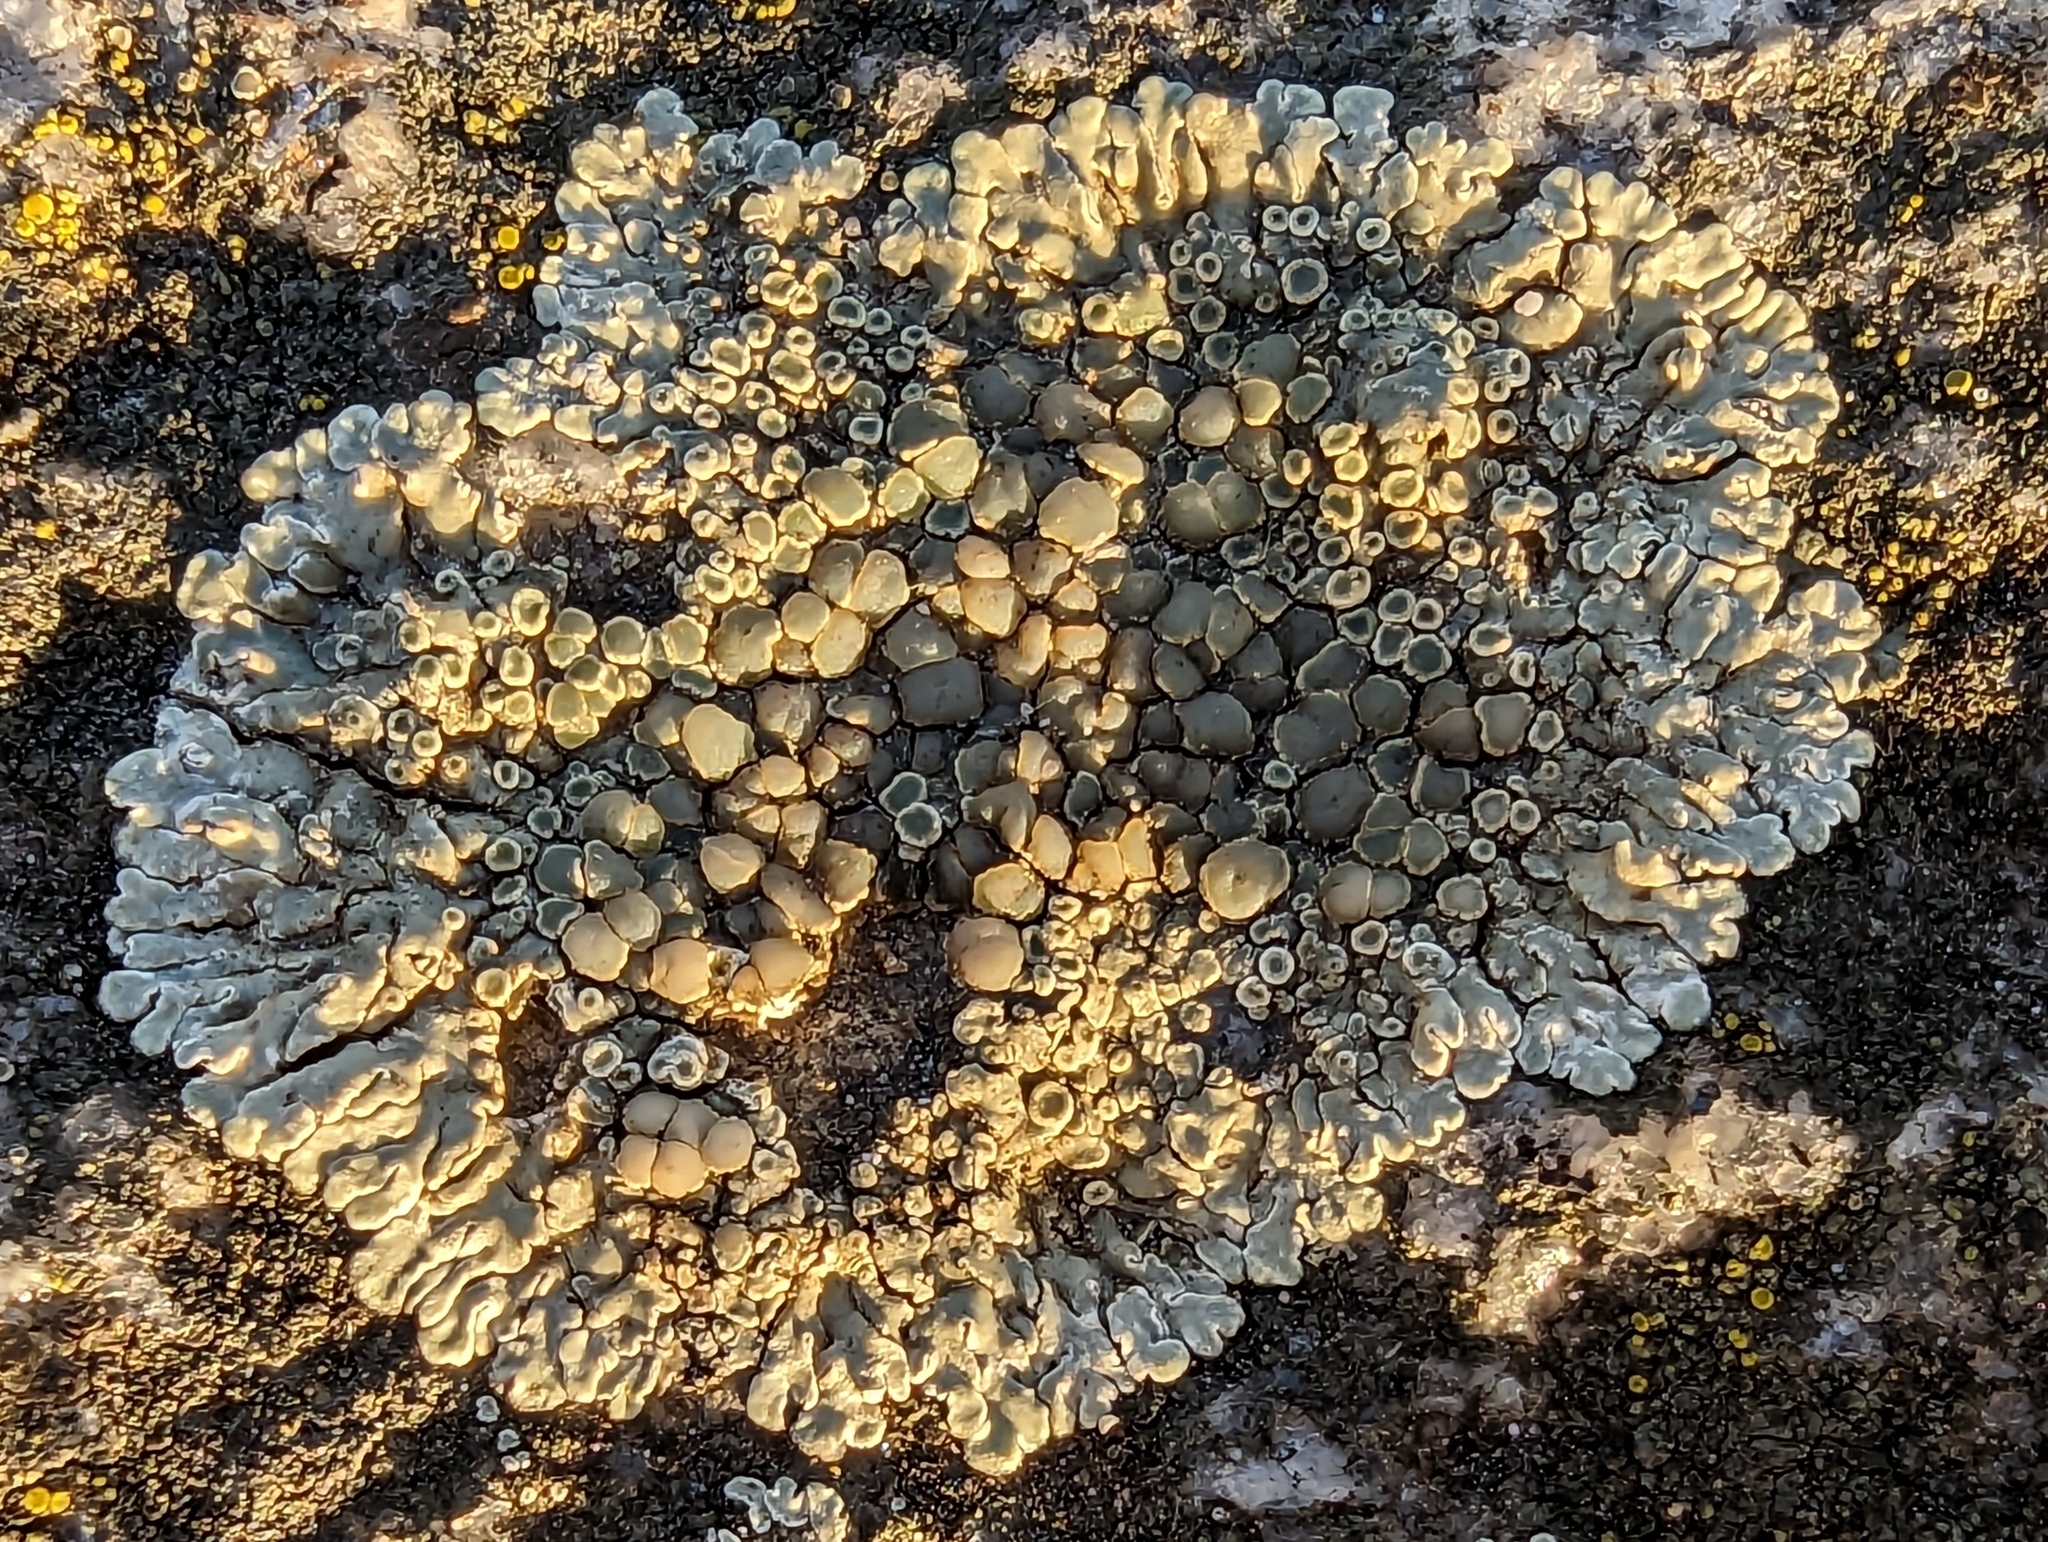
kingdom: Fungi
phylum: Ascomycota
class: Lecanoromycetes
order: Lecanorales
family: Lecanoraceae
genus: Protoparmeliopsis
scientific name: Protoparmeliopsis muralis
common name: Stonewall rim lichen
